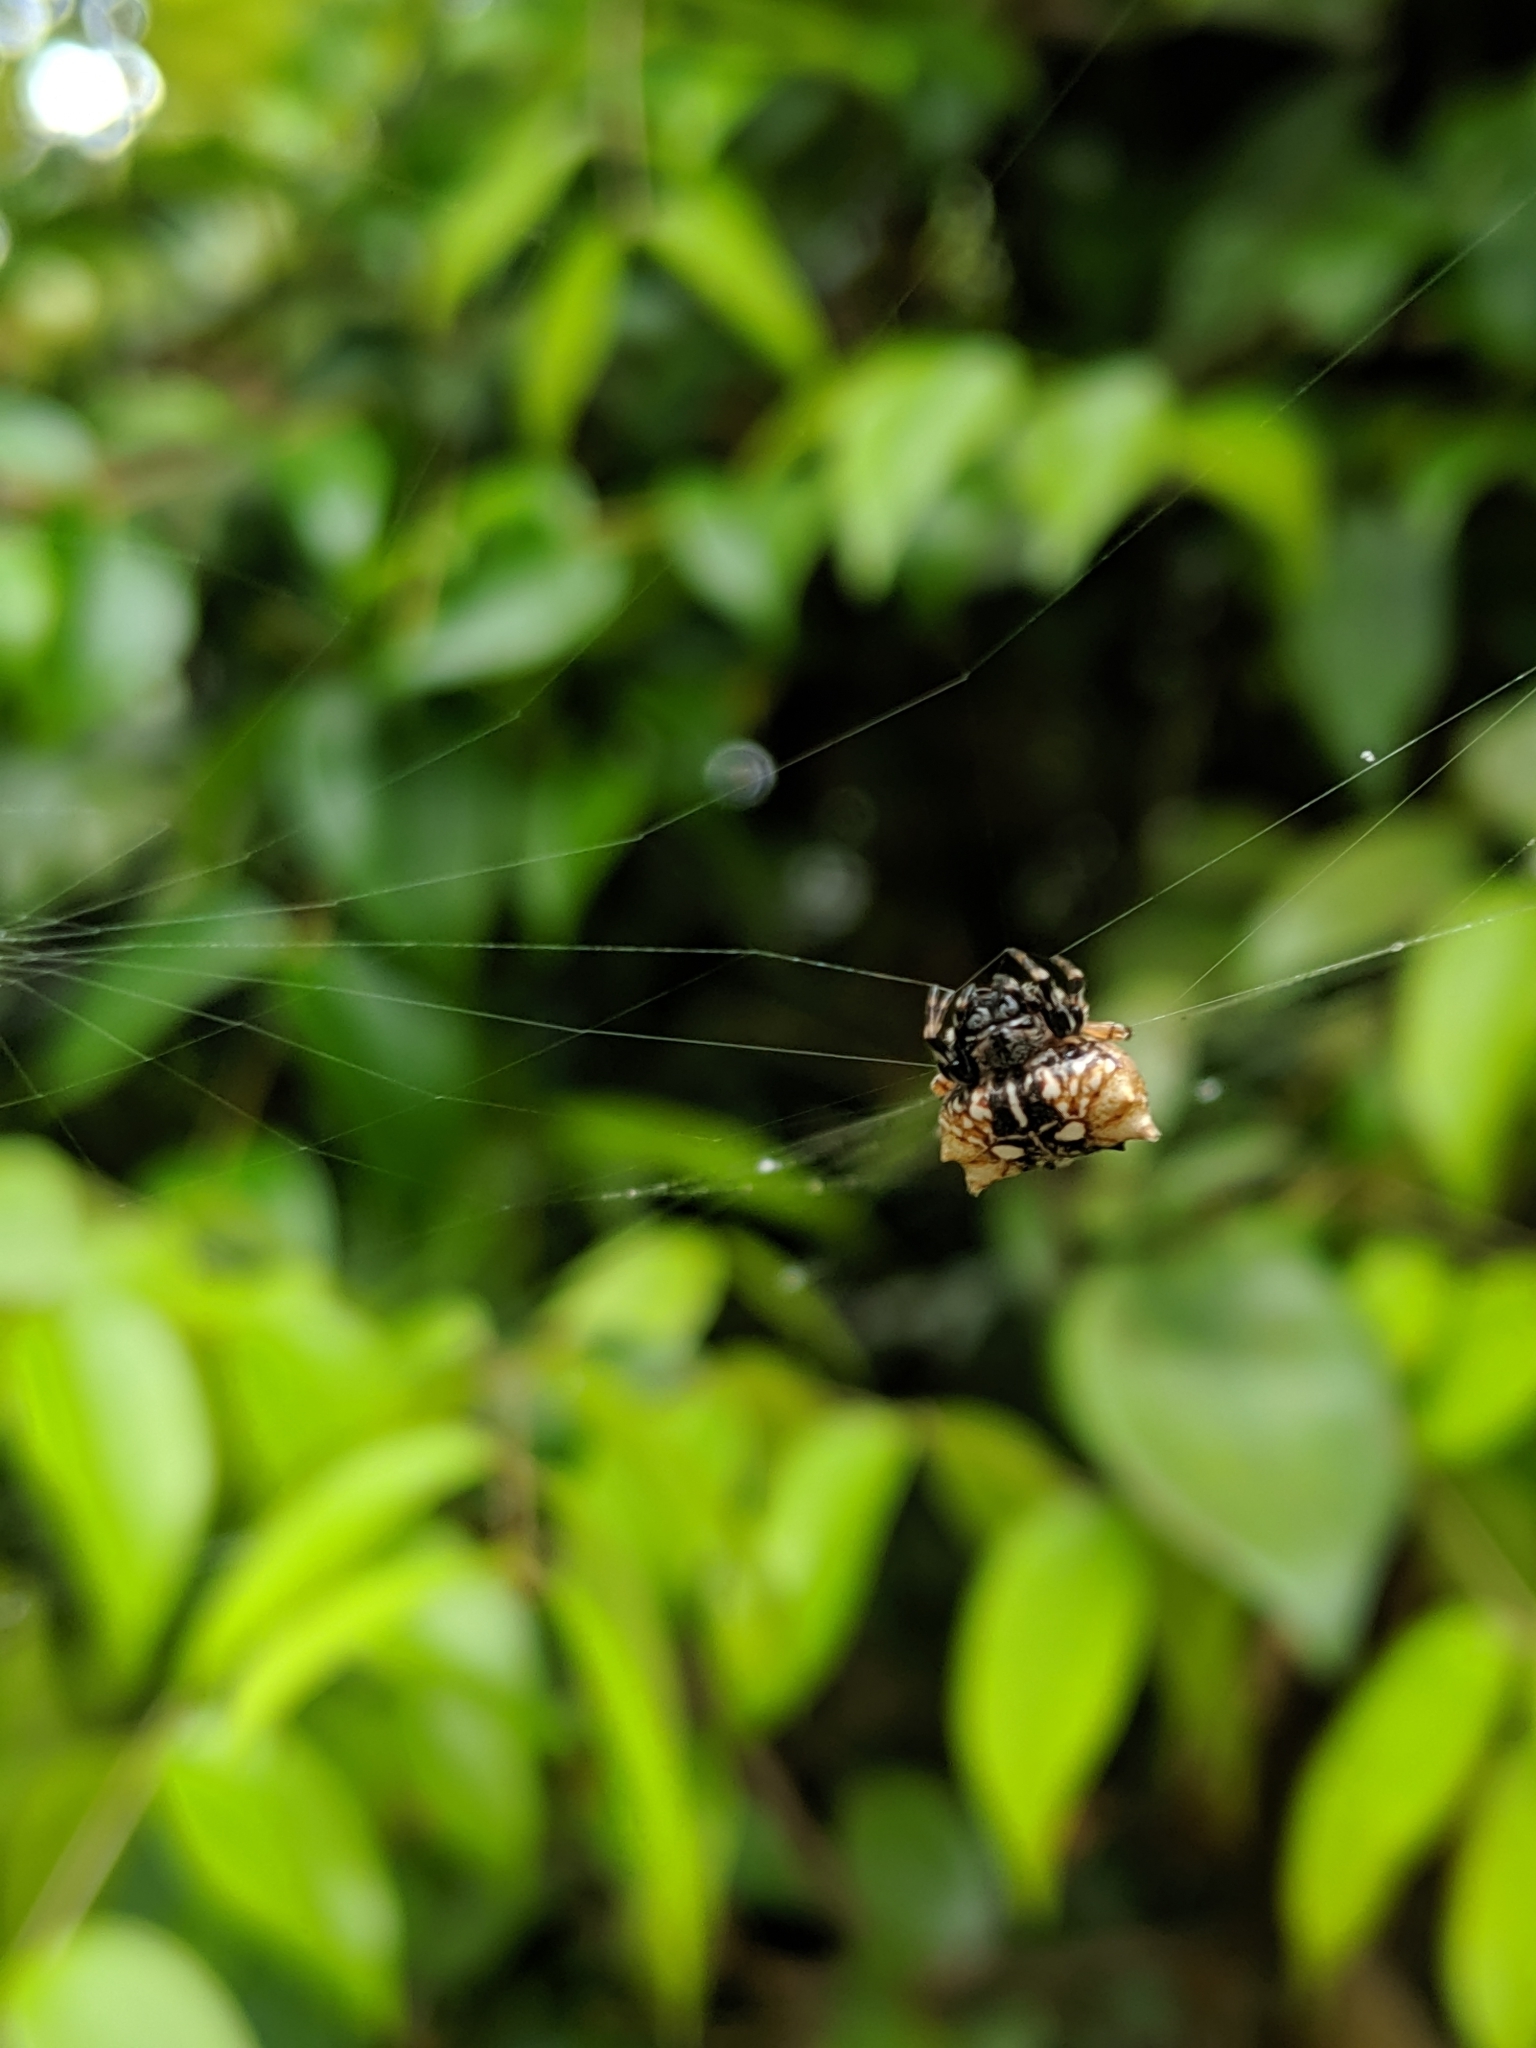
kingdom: Animalia
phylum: Arthropoda
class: Arachnida
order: Araneae
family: Araneidae
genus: Thelacantha
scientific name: Thelacantha brevispina
